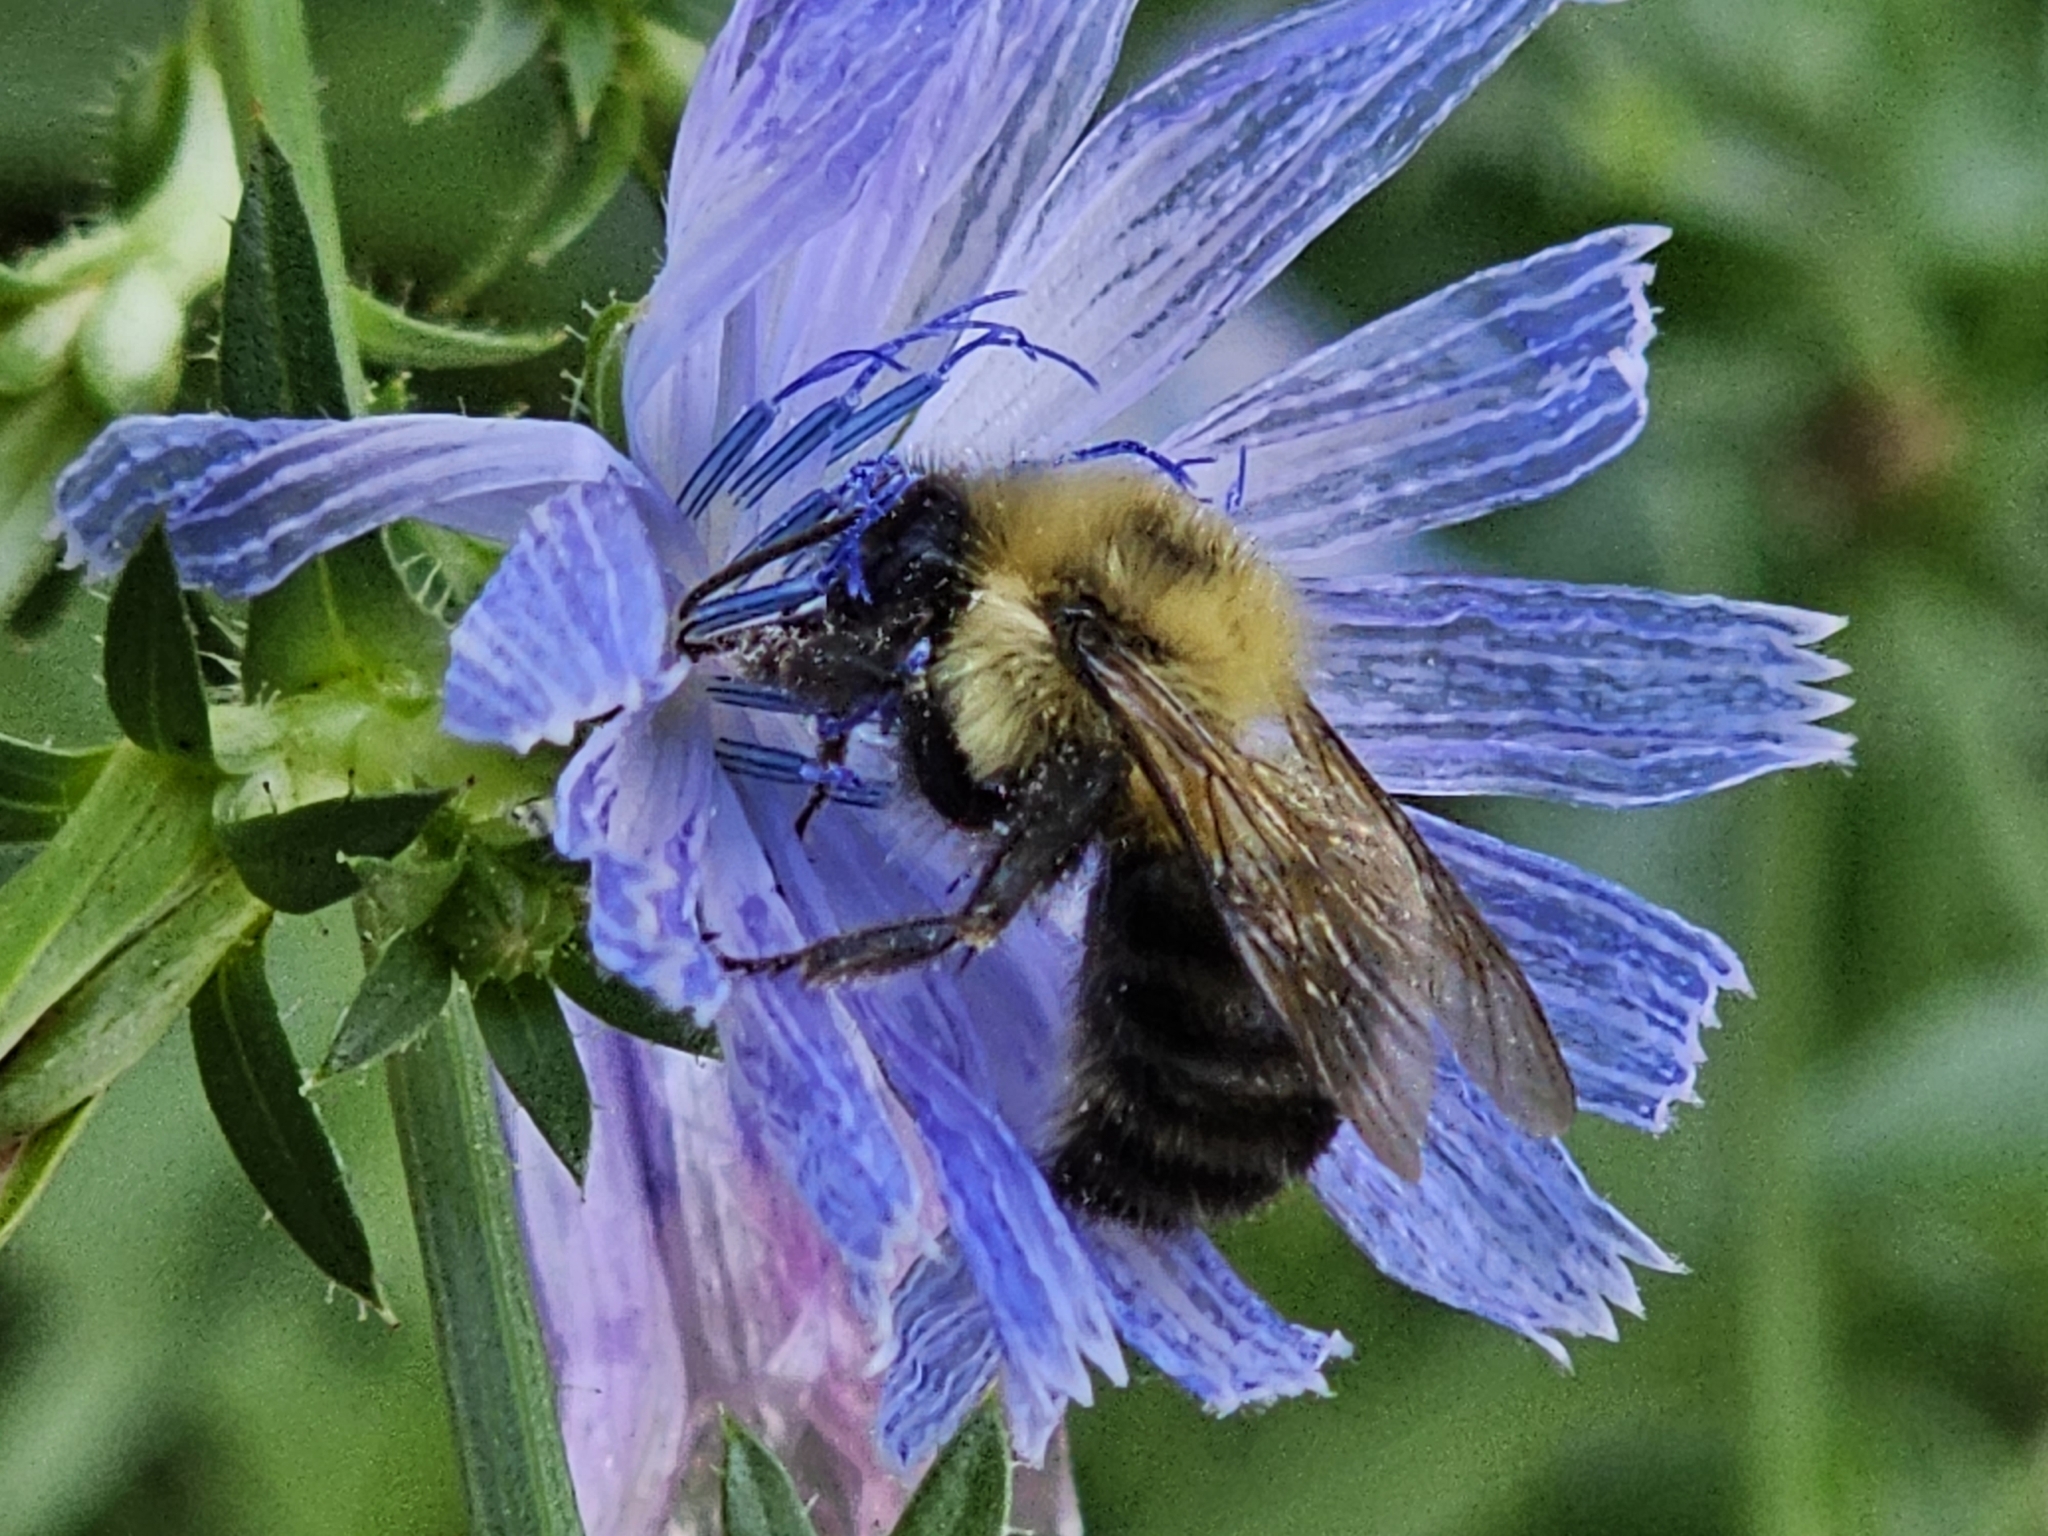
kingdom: Animalia
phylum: Arthropoda
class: Insecta
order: Hymenoptera
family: Apidae
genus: Bombus
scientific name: Bombus bimaculatus
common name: Two-spotted bumble bee
